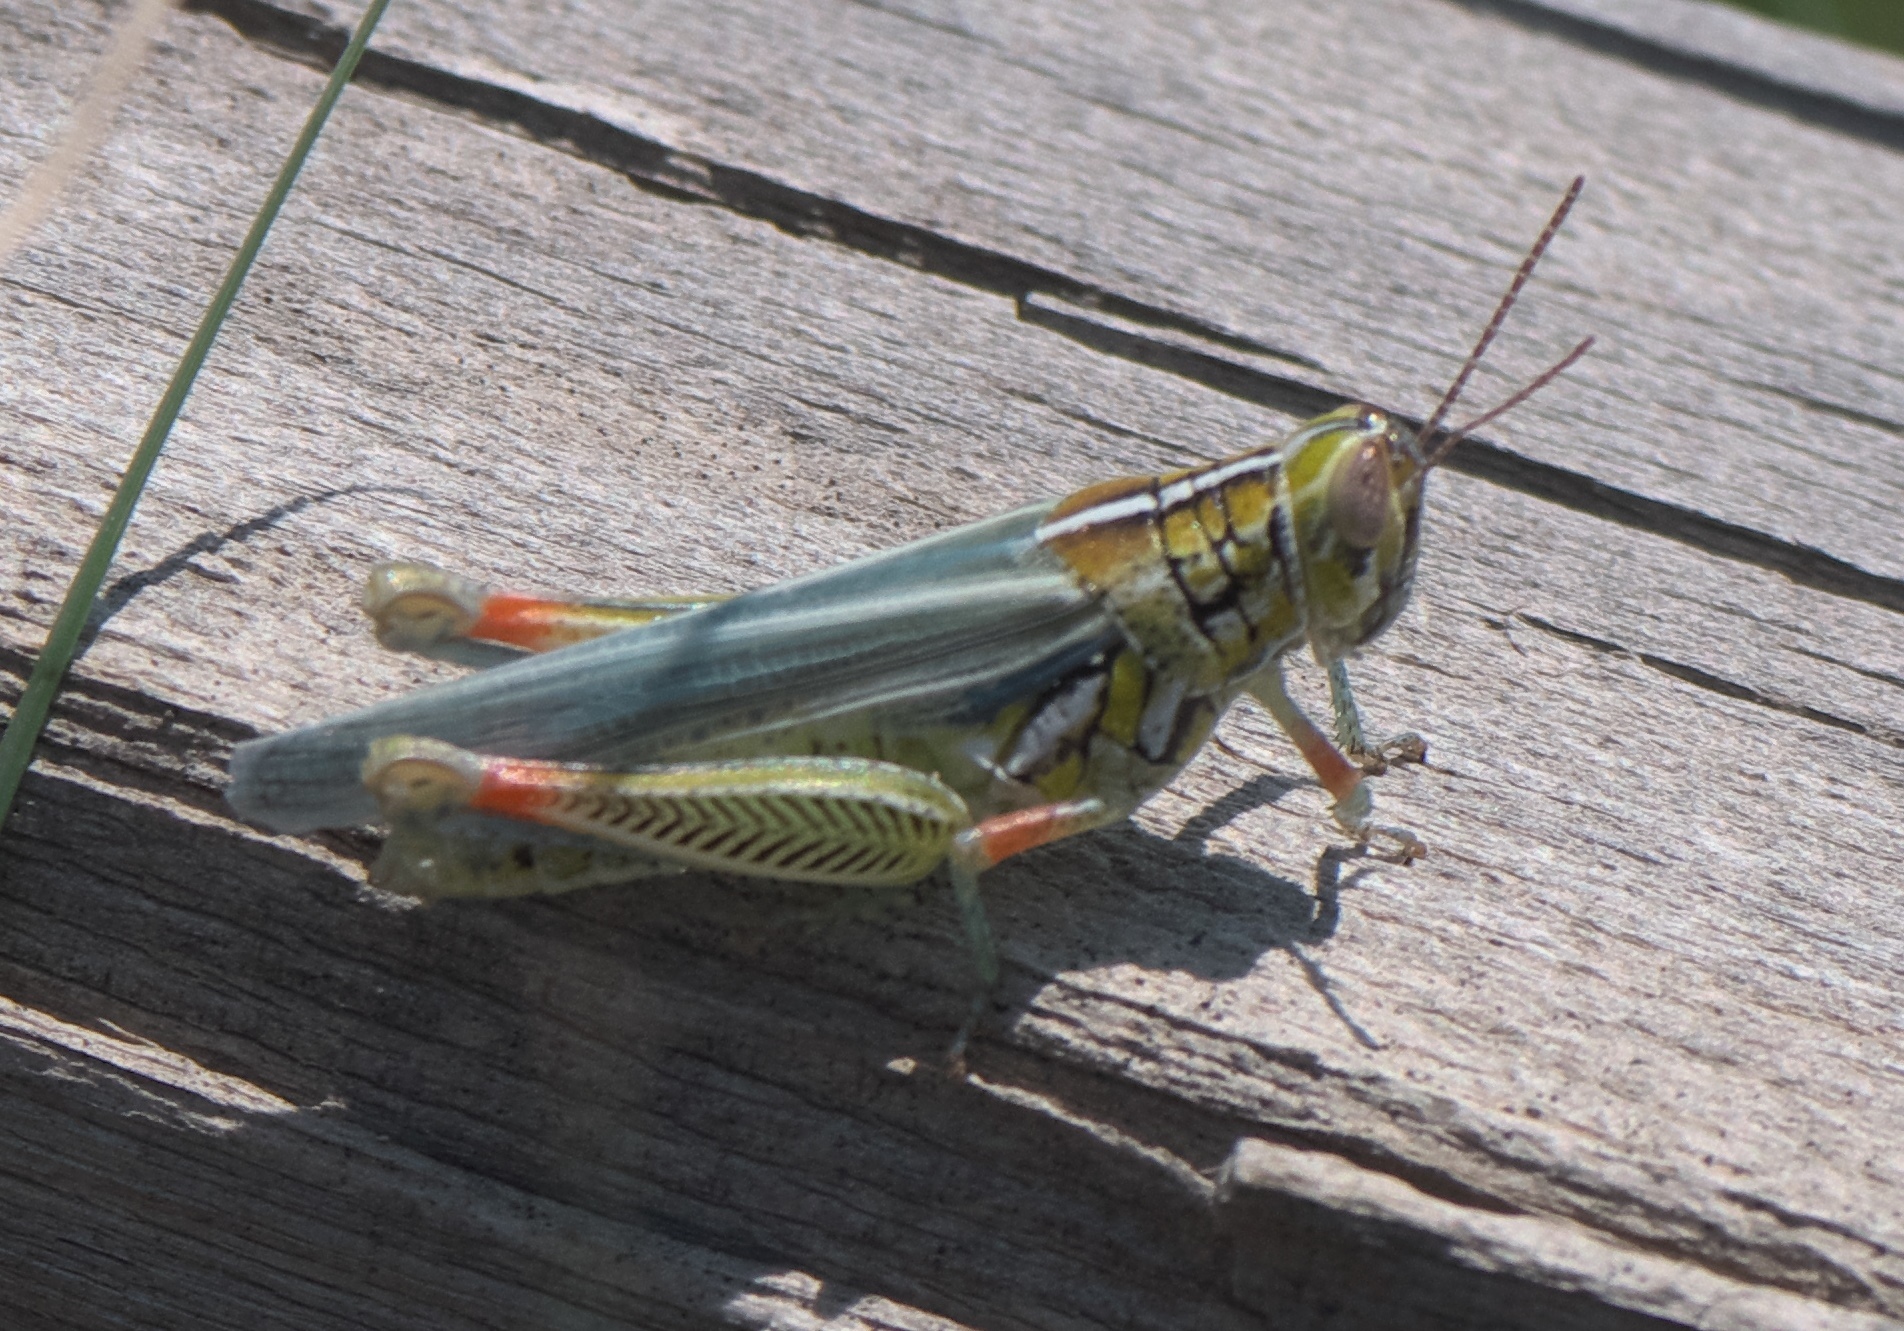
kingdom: Animalia
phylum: Arthropoda
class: Insecta
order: Orthoptera
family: Acrididae
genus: Hesperotettix
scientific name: Hesperotettix viridis
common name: Meadow purple-striped grasshopper
